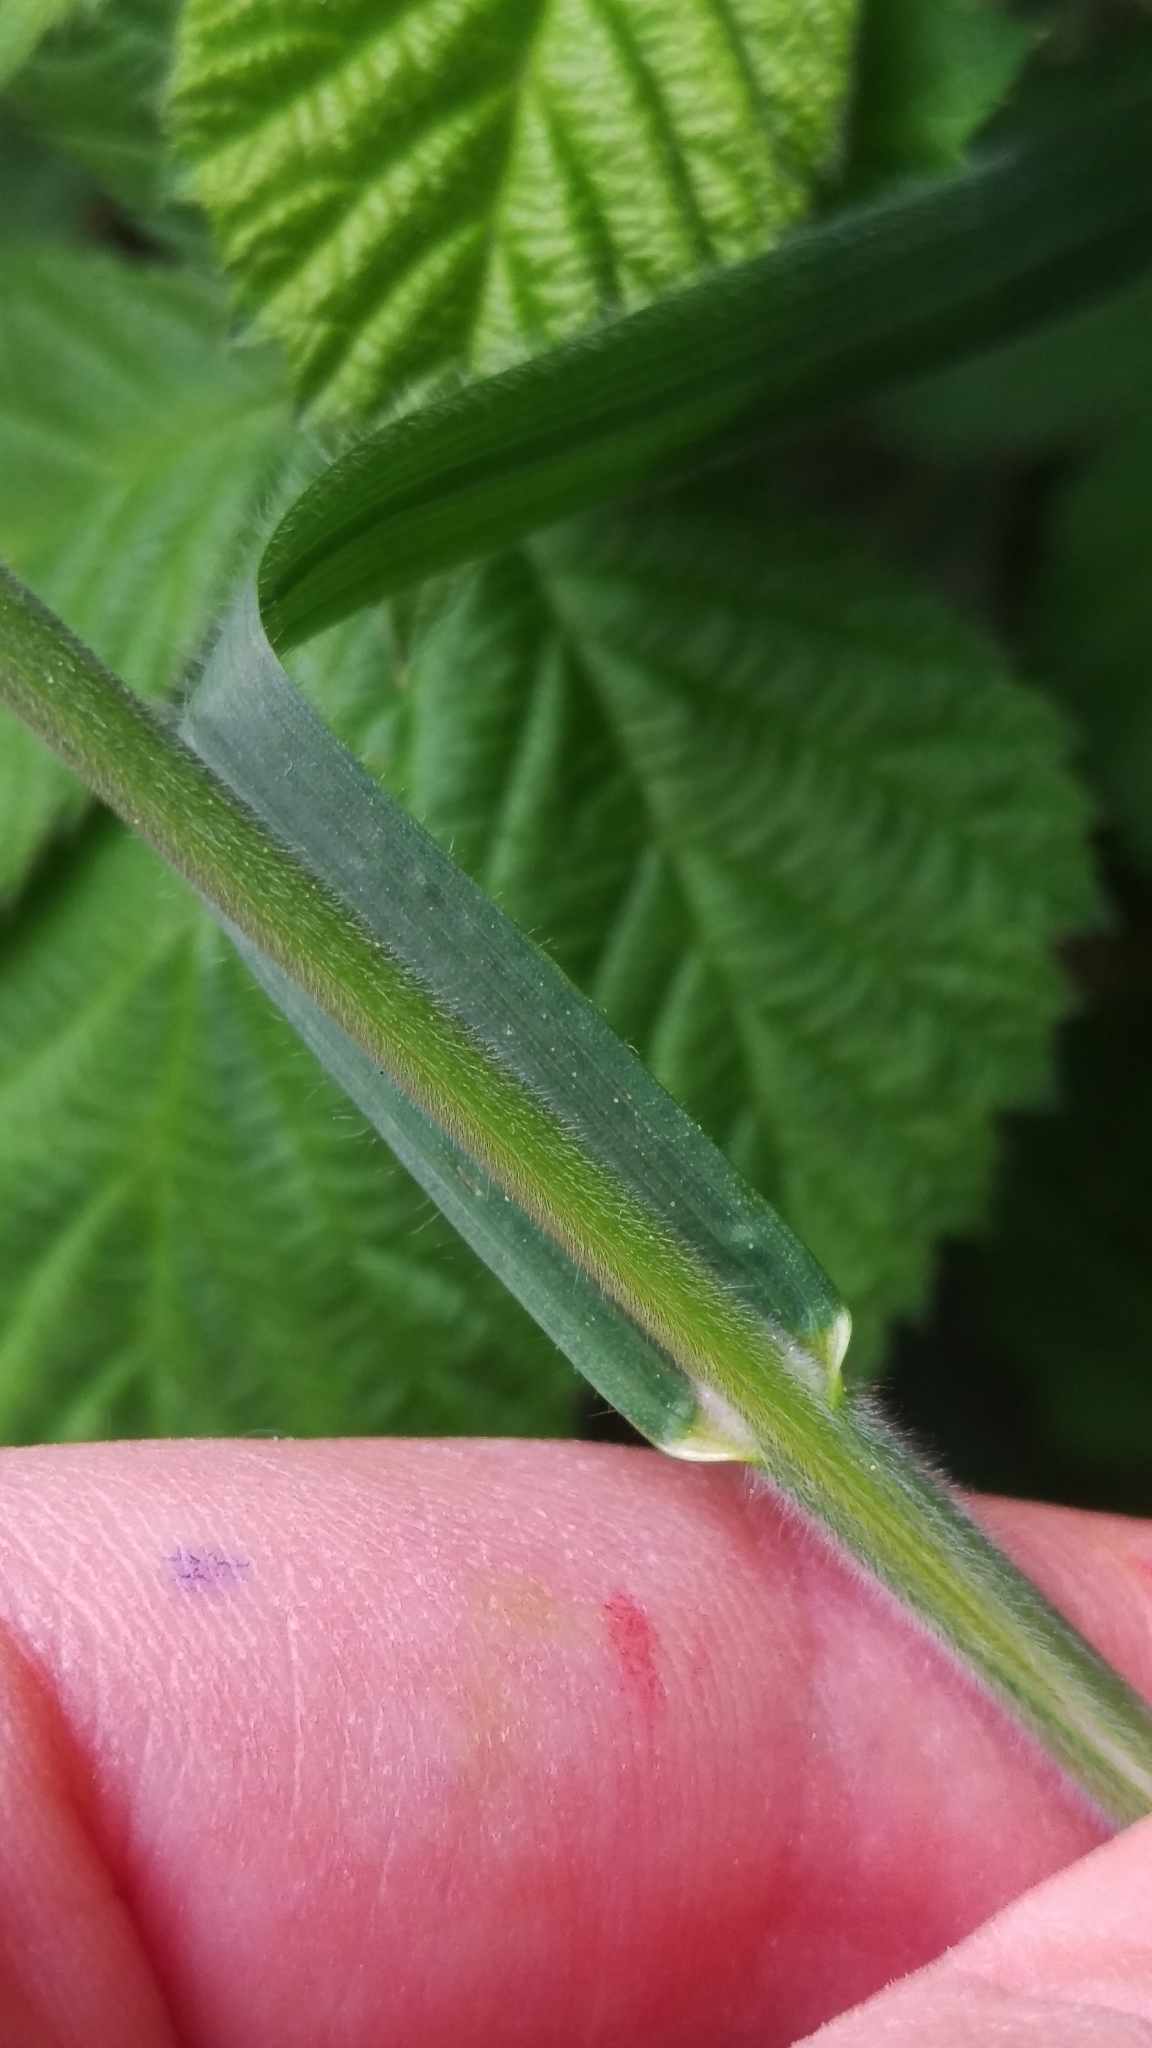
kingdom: Plantae
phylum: Tracheophyta
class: Liliopsida
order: Poales
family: Poaceae
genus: Bromus
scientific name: Bromus hordeaceus
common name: Soft brome
